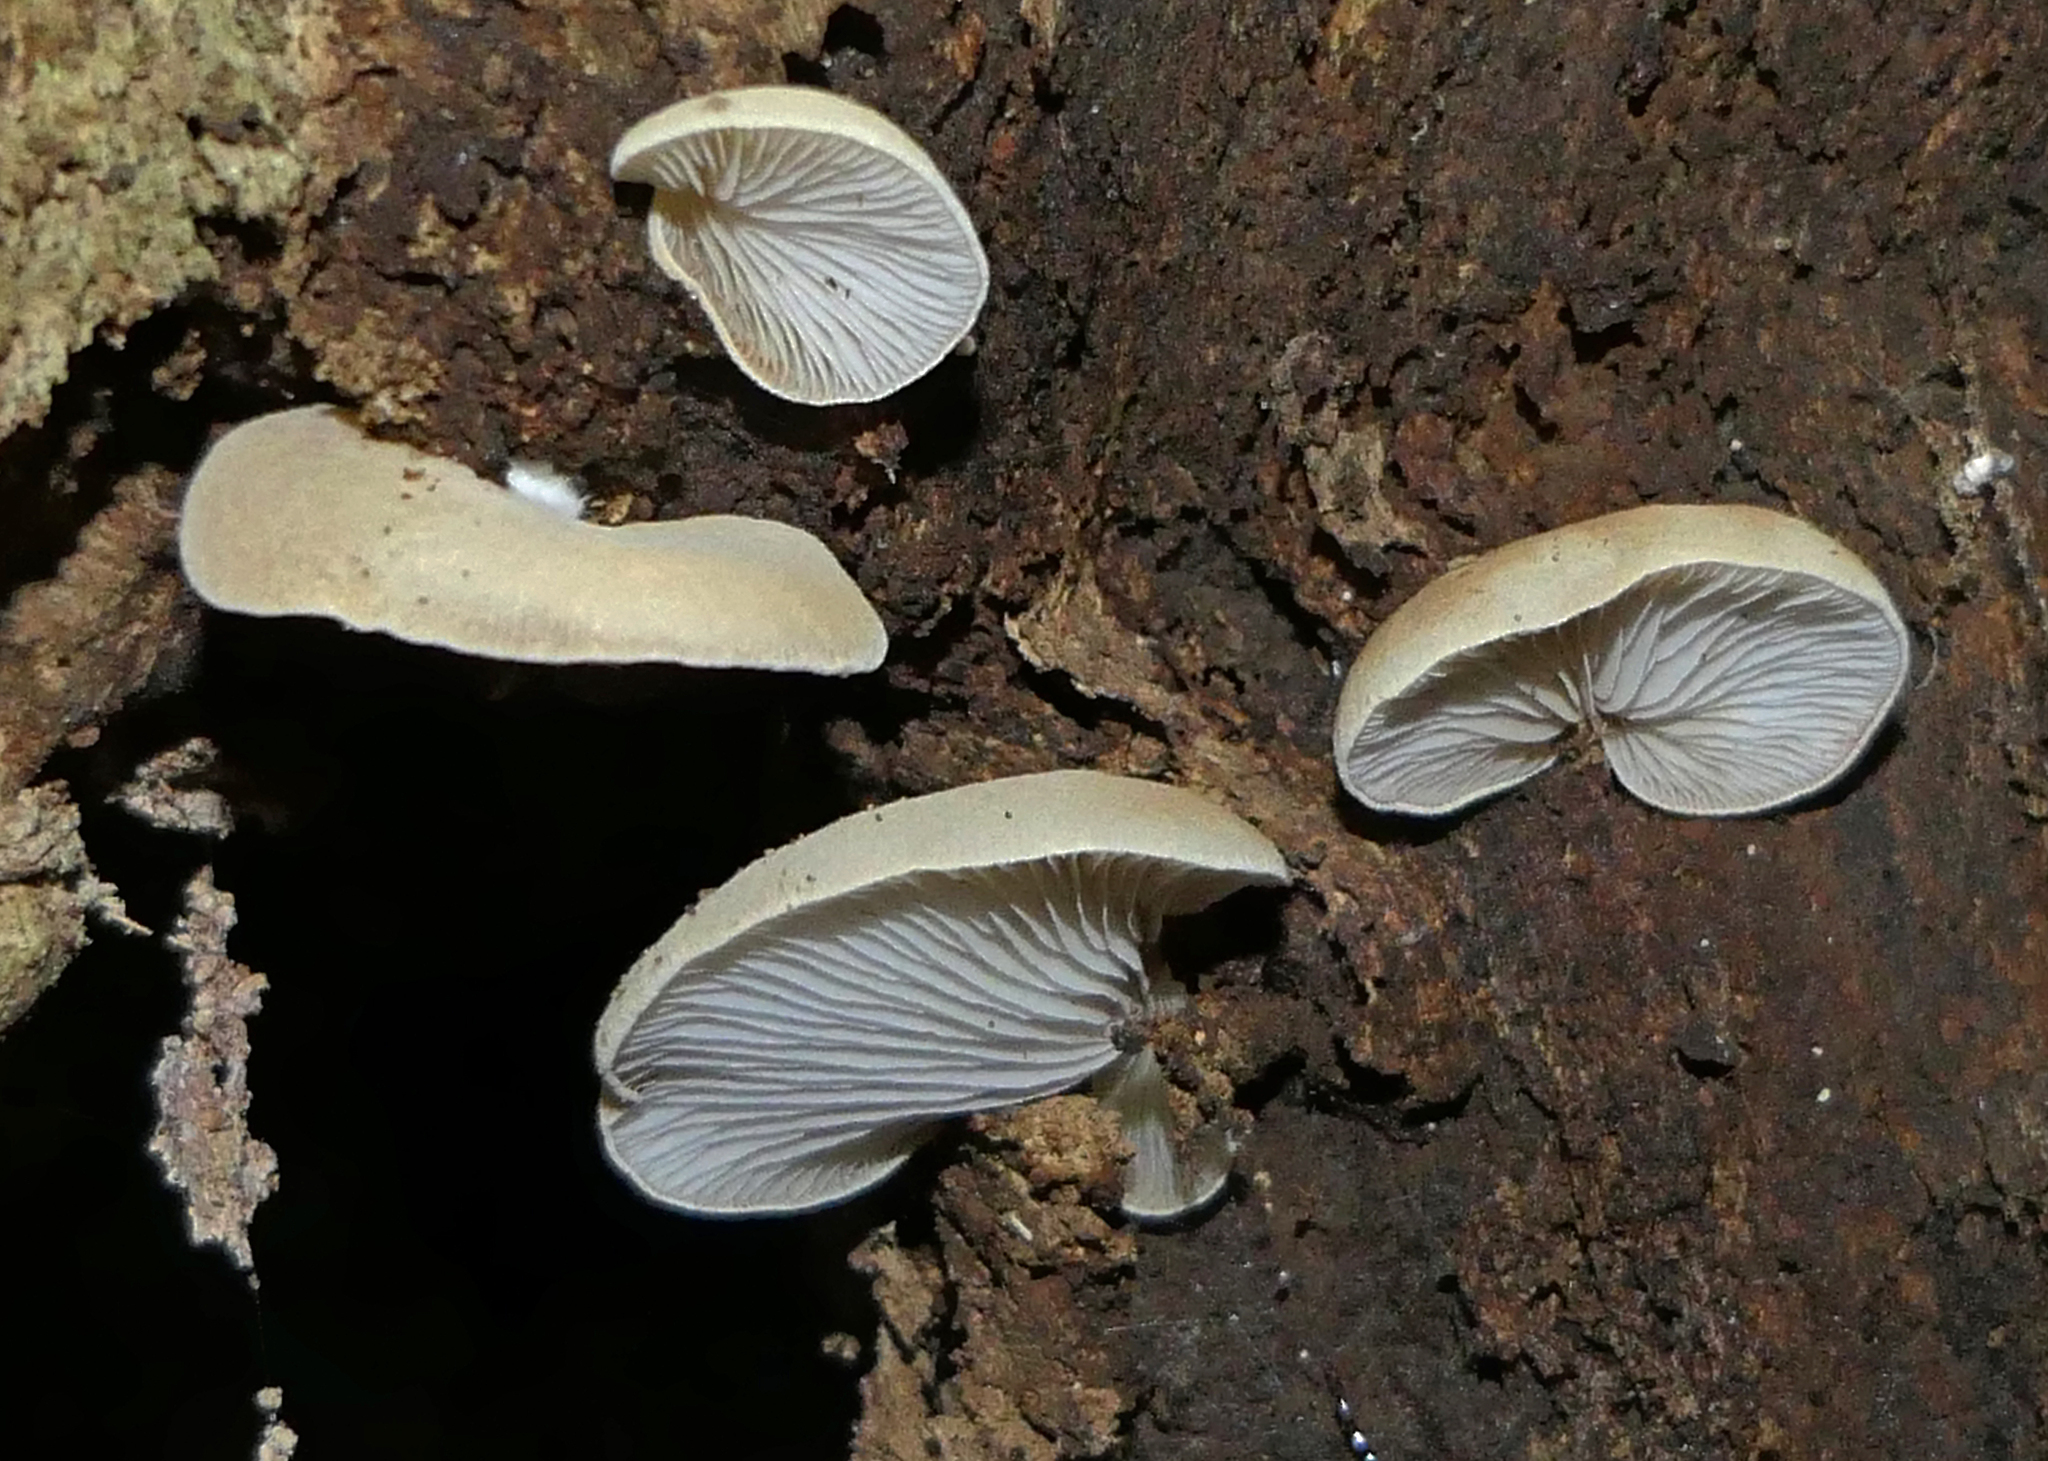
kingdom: Fungi
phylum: Basidiomycota
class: Agaricomycetes
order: Agaricales
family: Crepidotaceae
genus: Crepidotus
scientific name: Crepidotus inconspicuus
